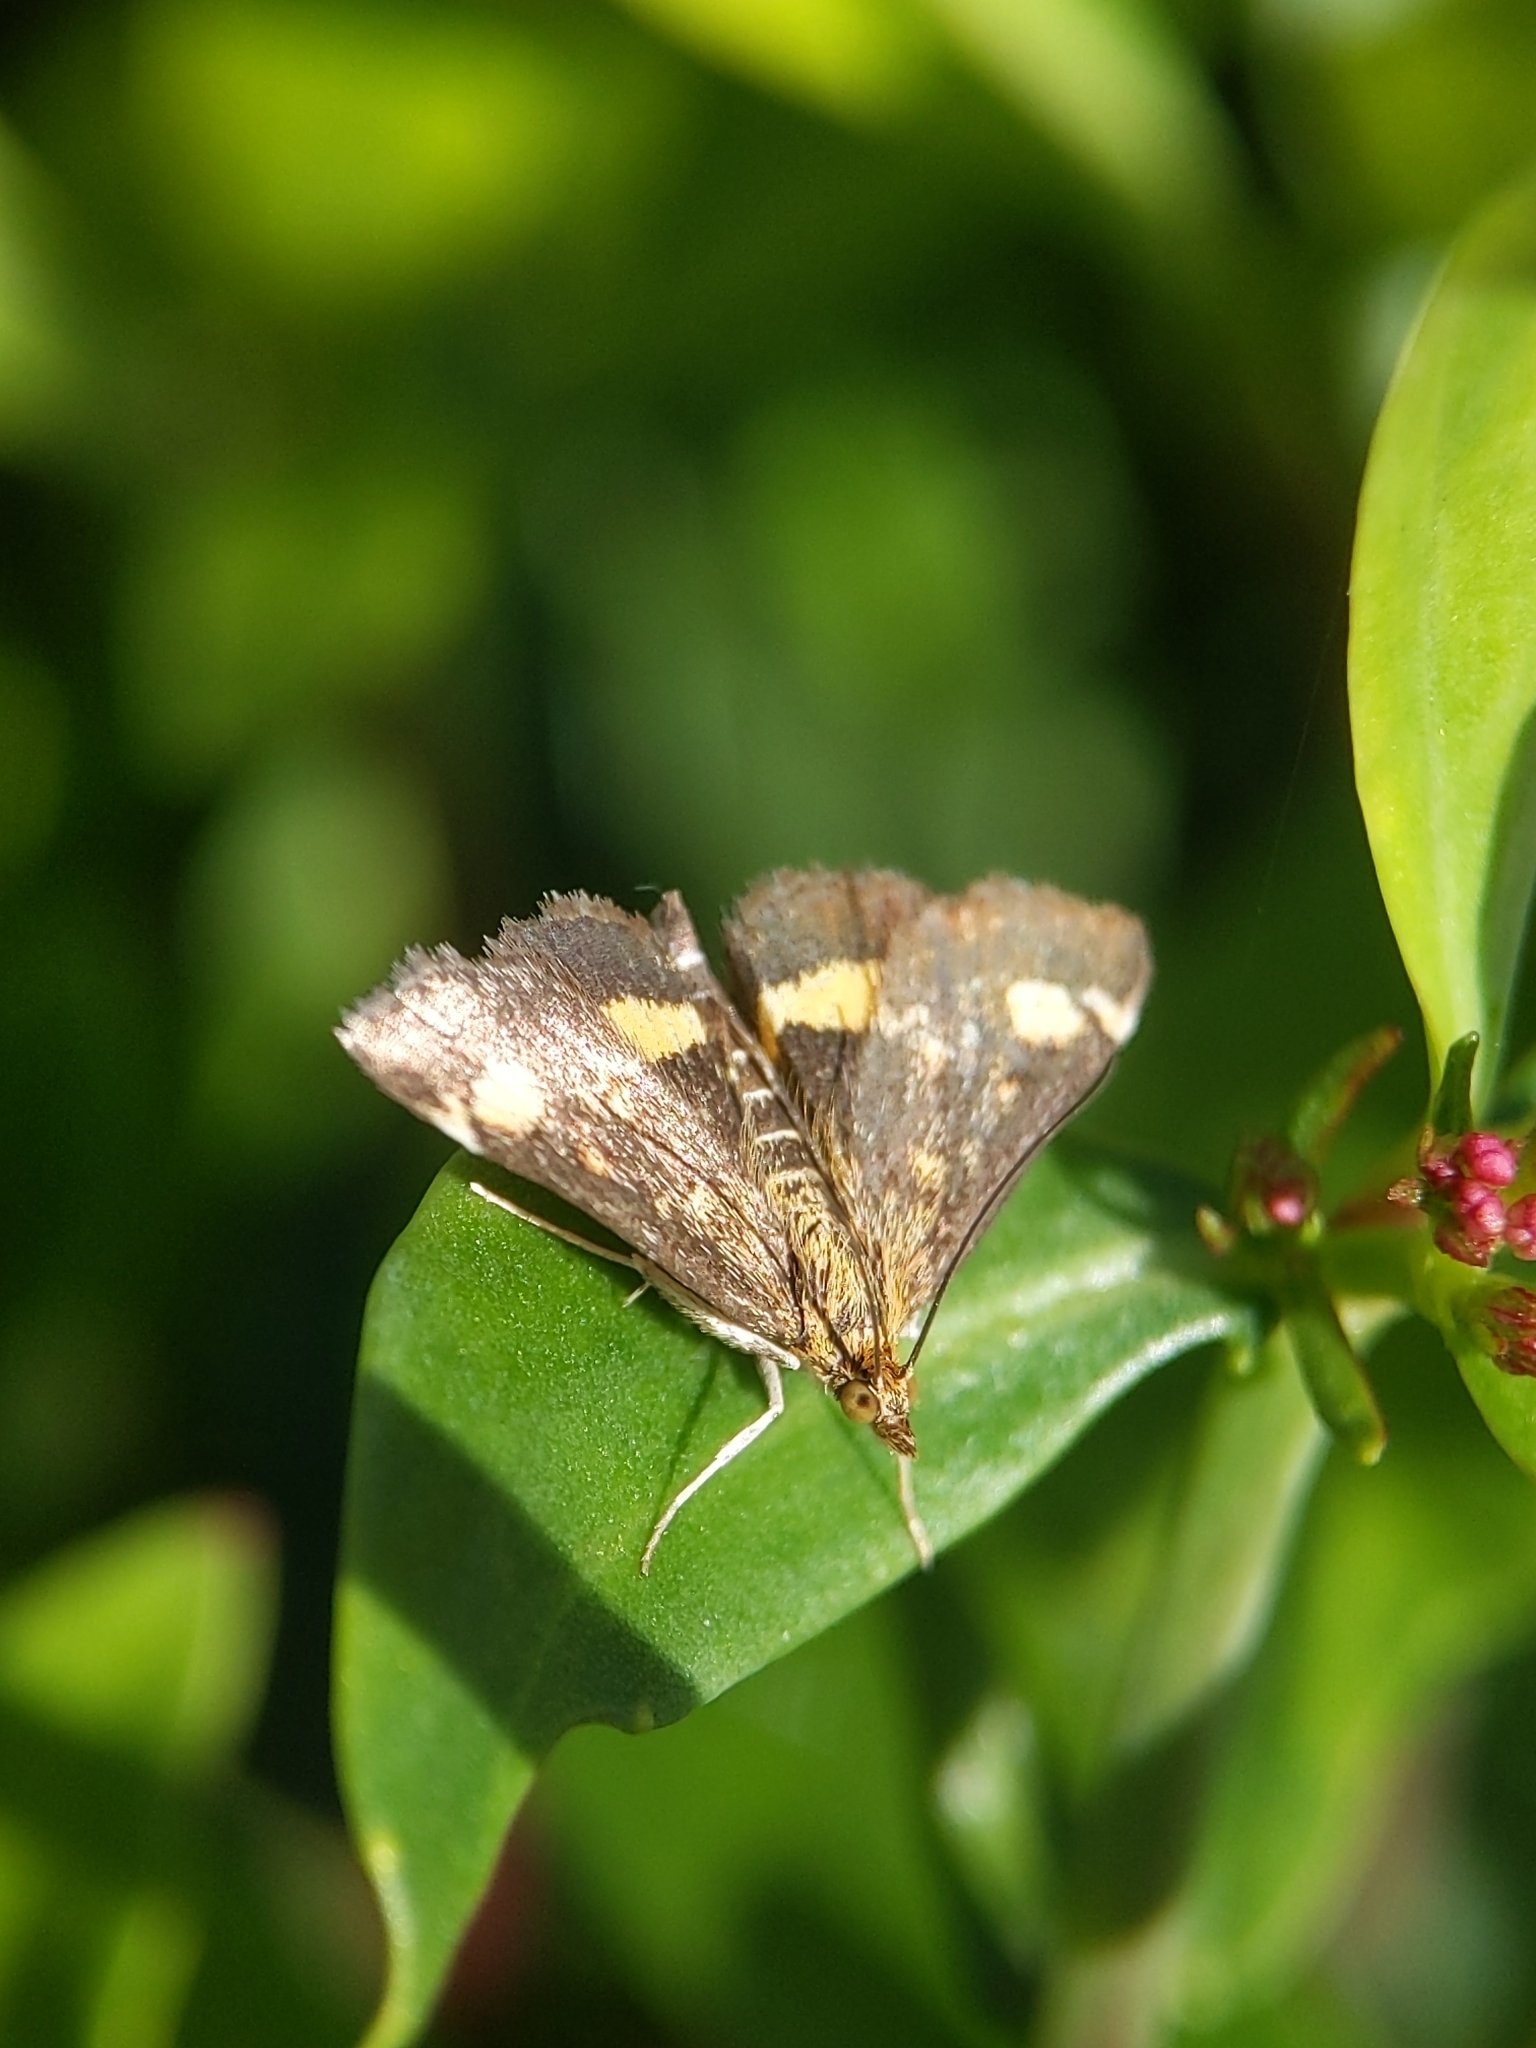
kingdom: Animalia
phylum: Arthropoda
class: Insecta
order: Lepidoptera
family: Crambidae
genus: Pyrausta
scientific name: Pyrausta aurata
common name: Small purple & gold
